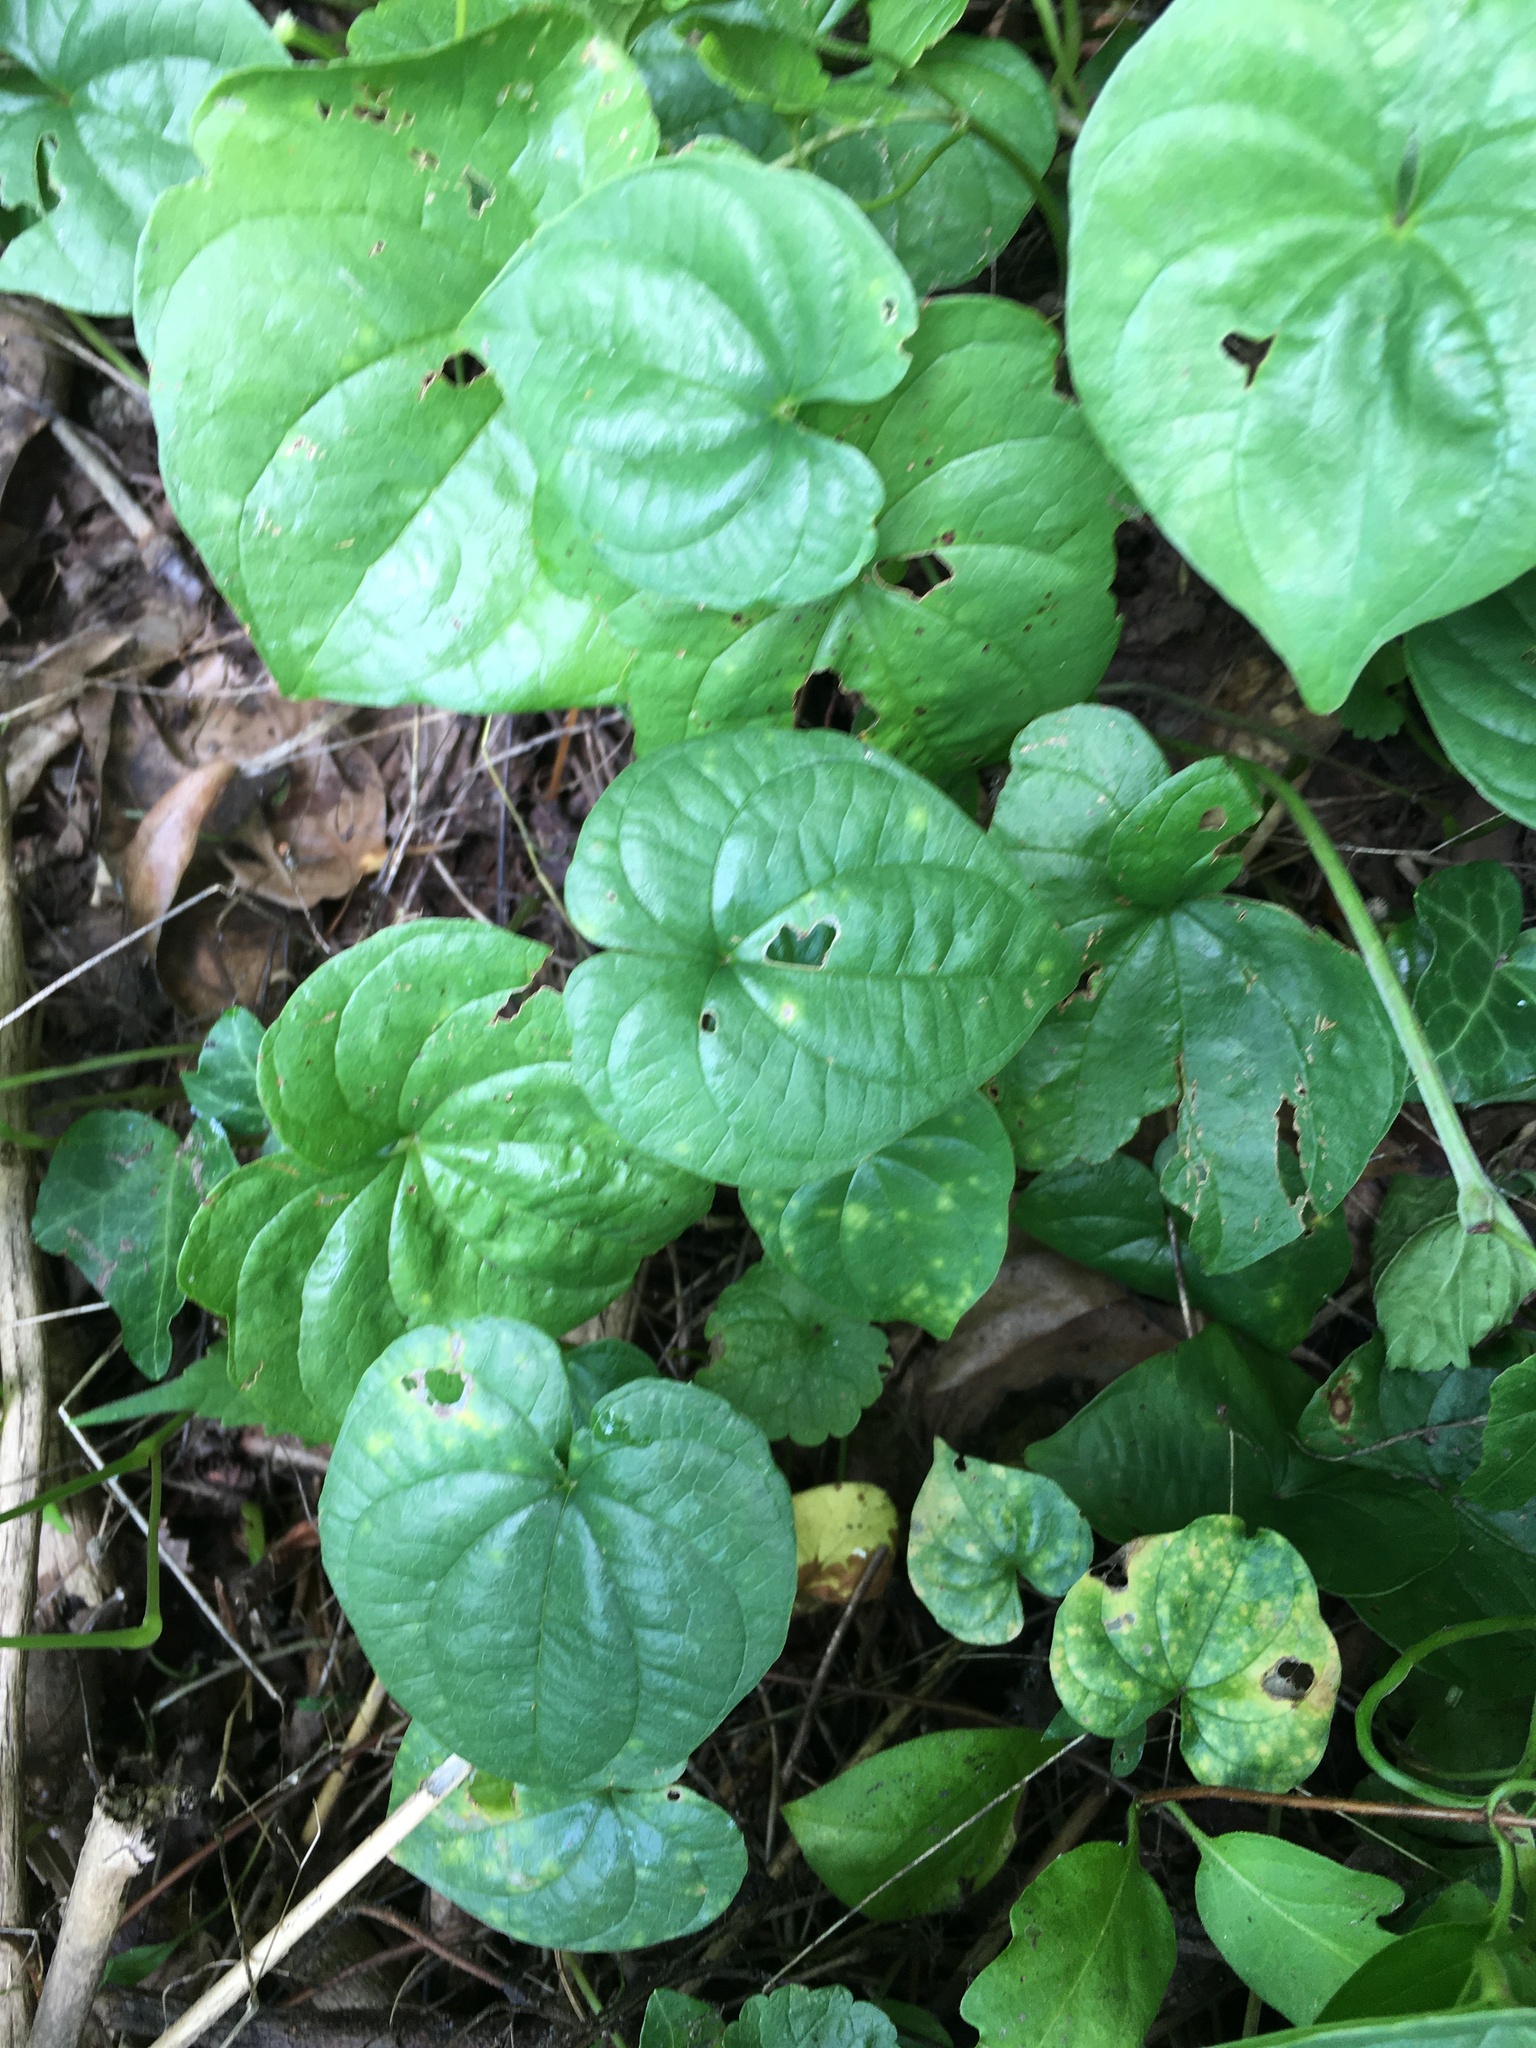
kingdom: Plantae
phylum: Tracheophyta
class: Liliopsida
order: Dioscoreales
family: Dioscoreaceae
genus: Dioscorea
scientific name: Dioscorea polystachya
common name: Chinese yam
